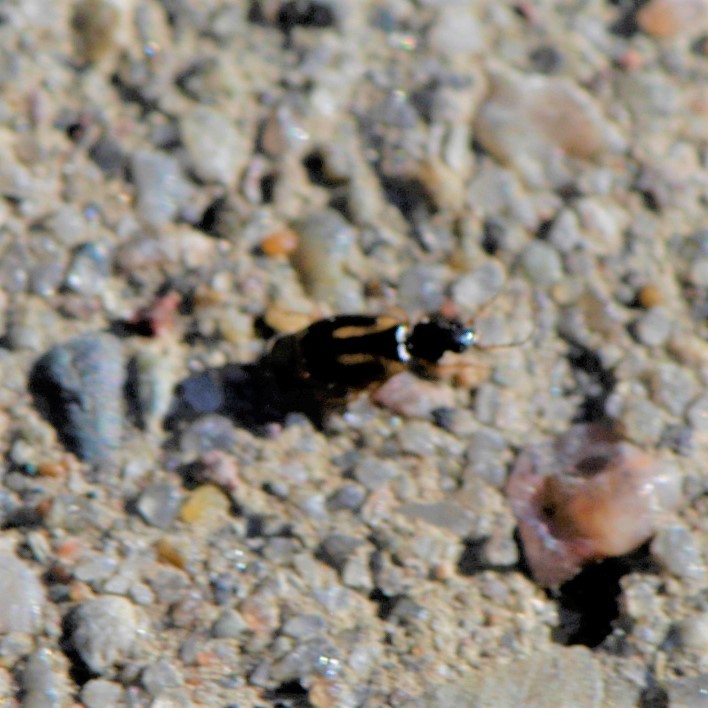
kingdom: Animalia
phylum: Arthropoda
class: Insecta
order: Coleoptera
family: Carabidae
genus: Axinopalpus
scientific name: Axinopalpus biplagiatus
